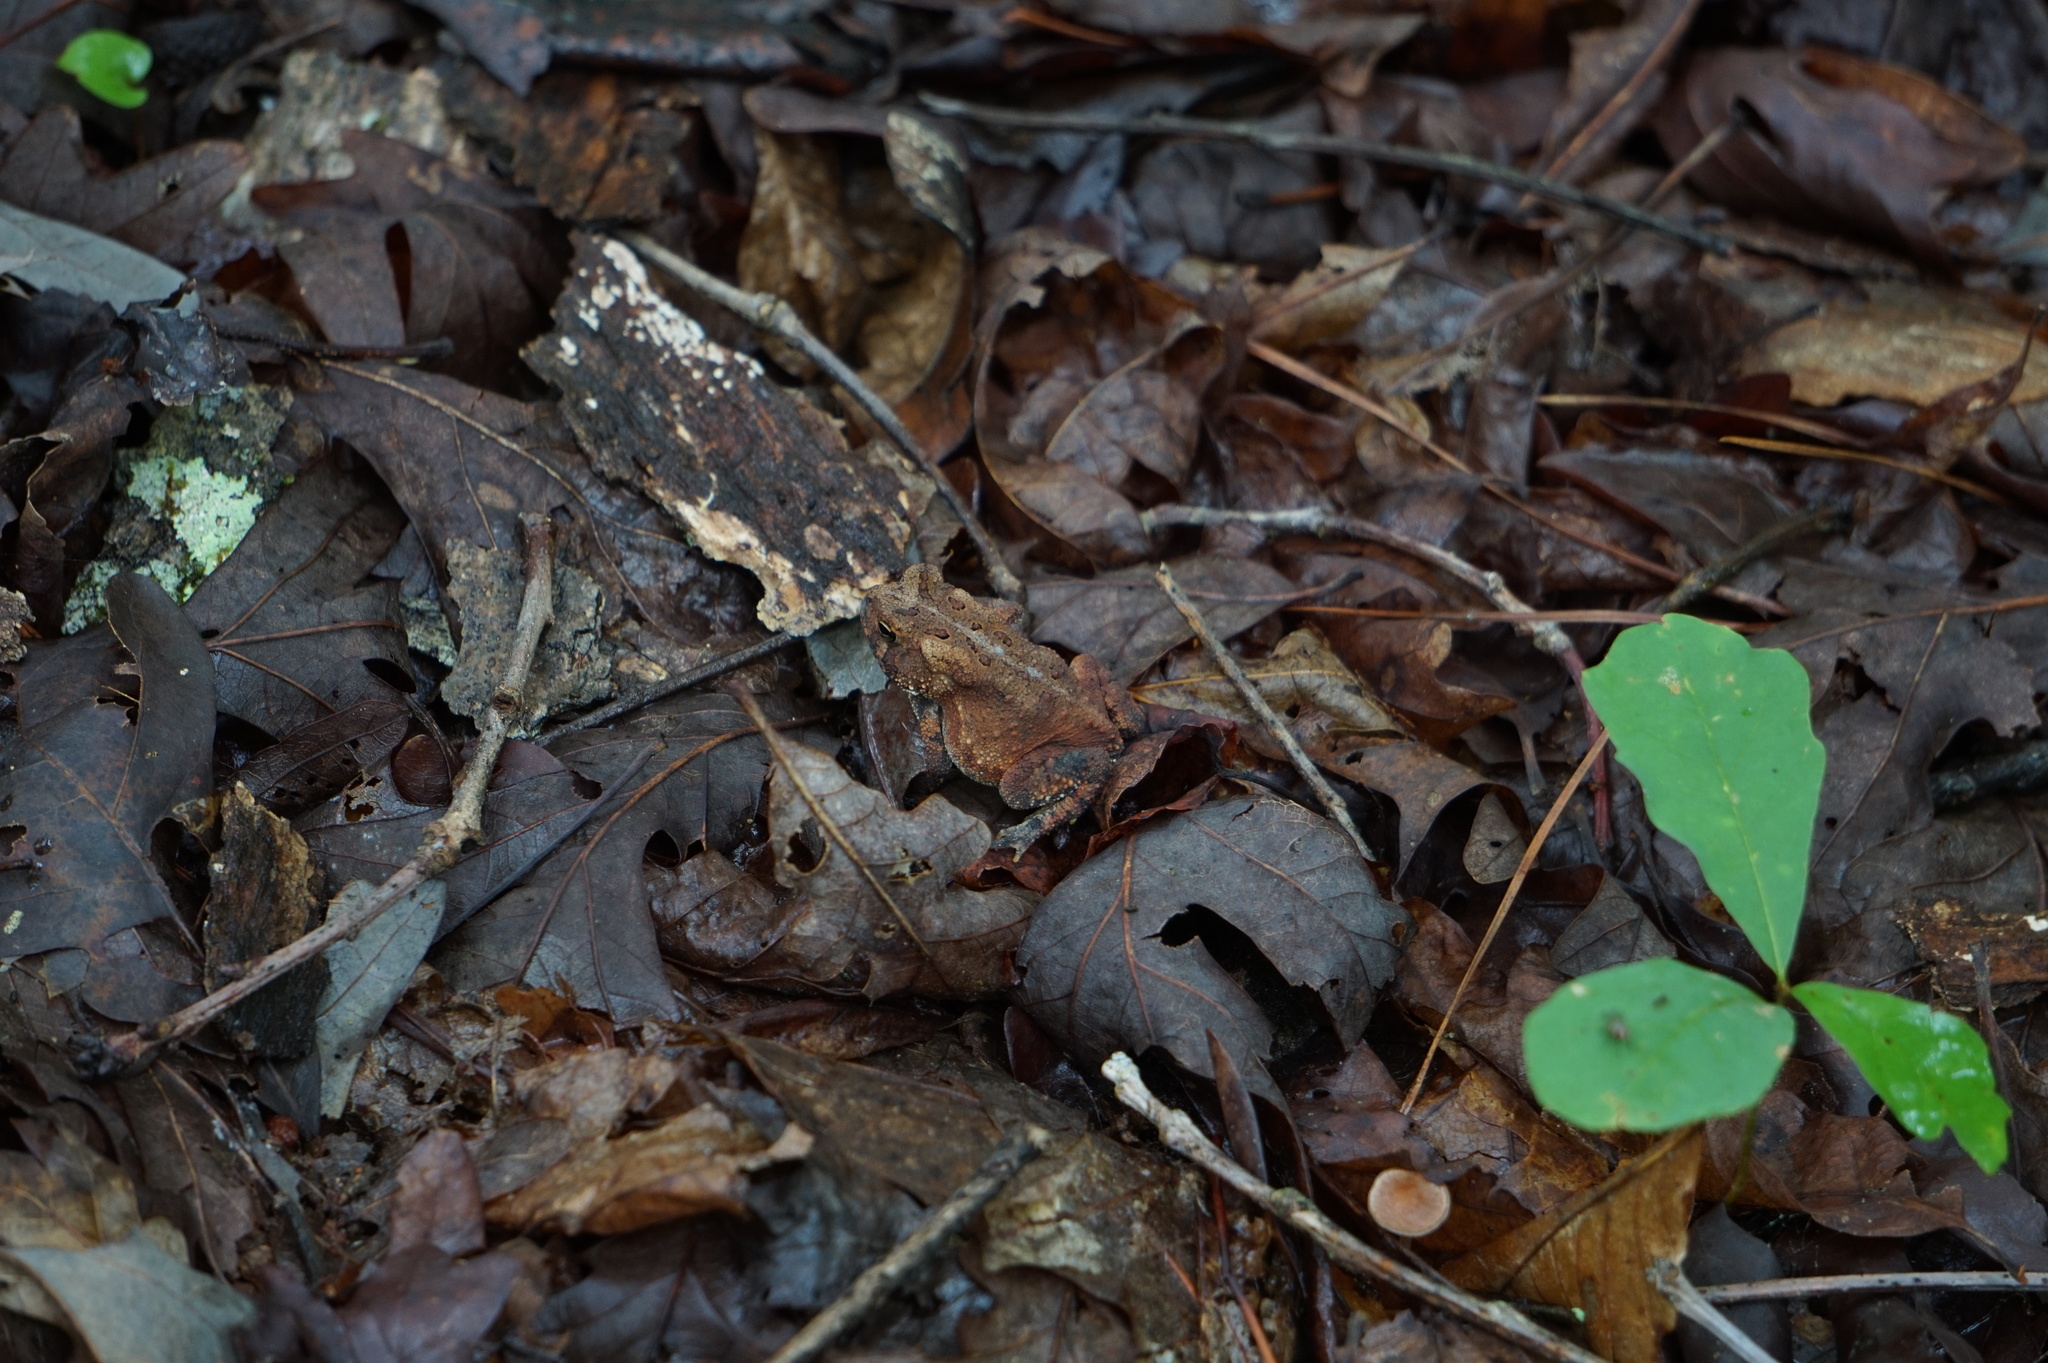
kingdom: Animalia
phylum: Chordata
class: Amphibia
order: Anura
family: Bufonidae
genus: Anaxyrus
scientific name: Anaxyrus americanus
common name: American toad
